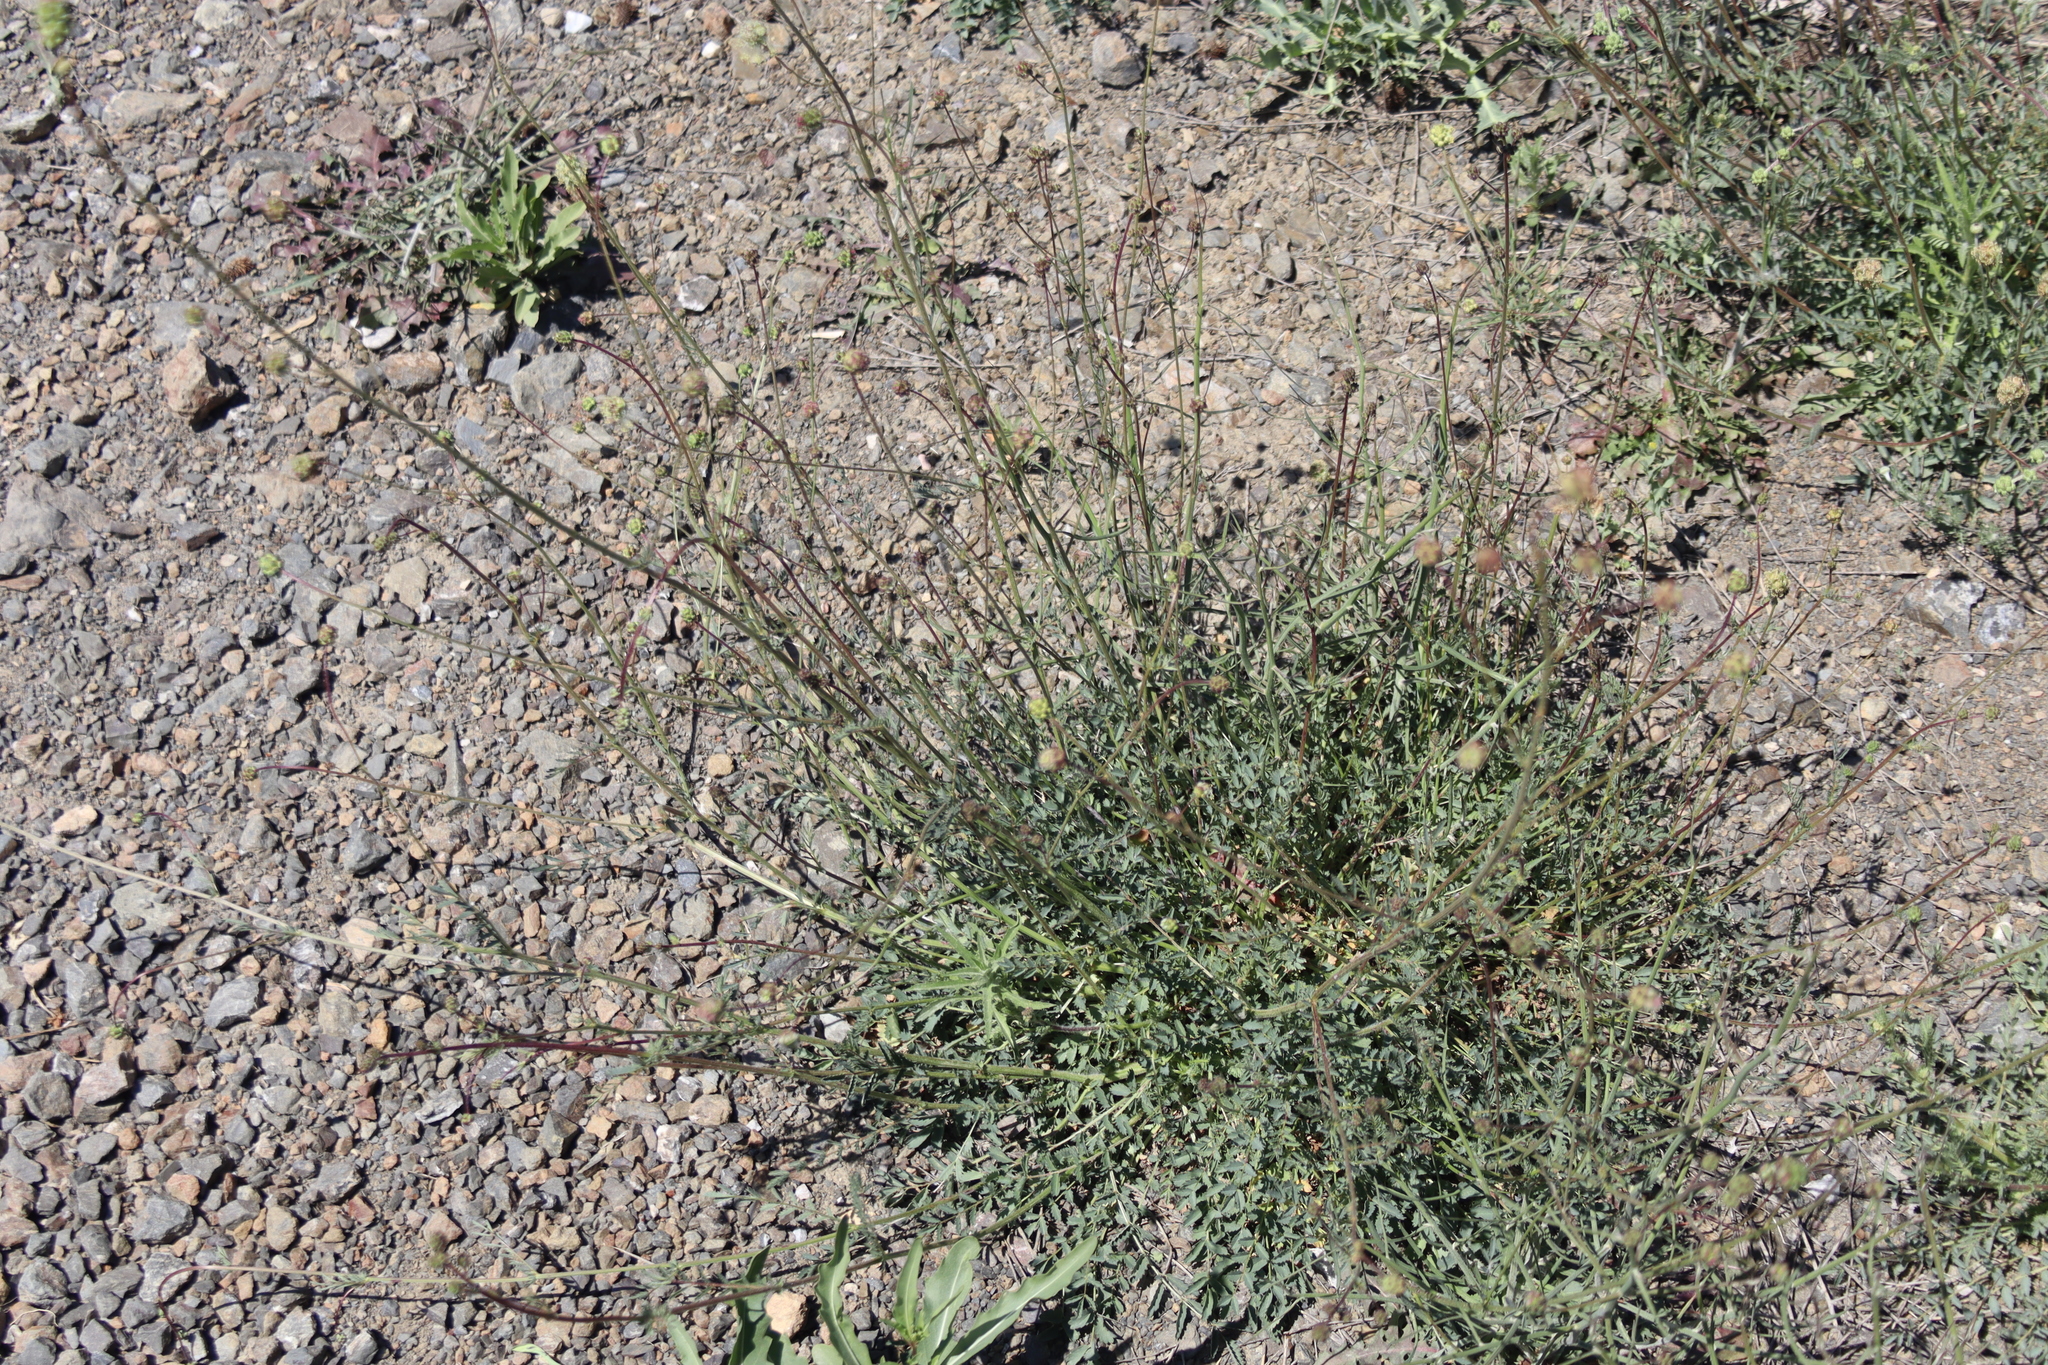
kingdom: Plantae
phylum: Tracheophyta
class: Magnoliopsida
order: Rosales
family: Rosaceae
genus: Poterium
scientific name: Poterium sanguisorba
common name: Salad burnet
